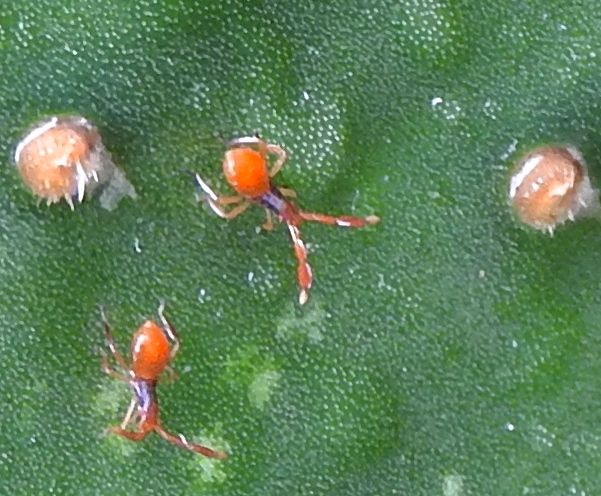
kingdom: Animalia
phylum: Arthropoda
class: Insecta
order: Hemiptera
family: Coreidae
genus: Chelinidea
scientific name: Chelinidea vittiger
